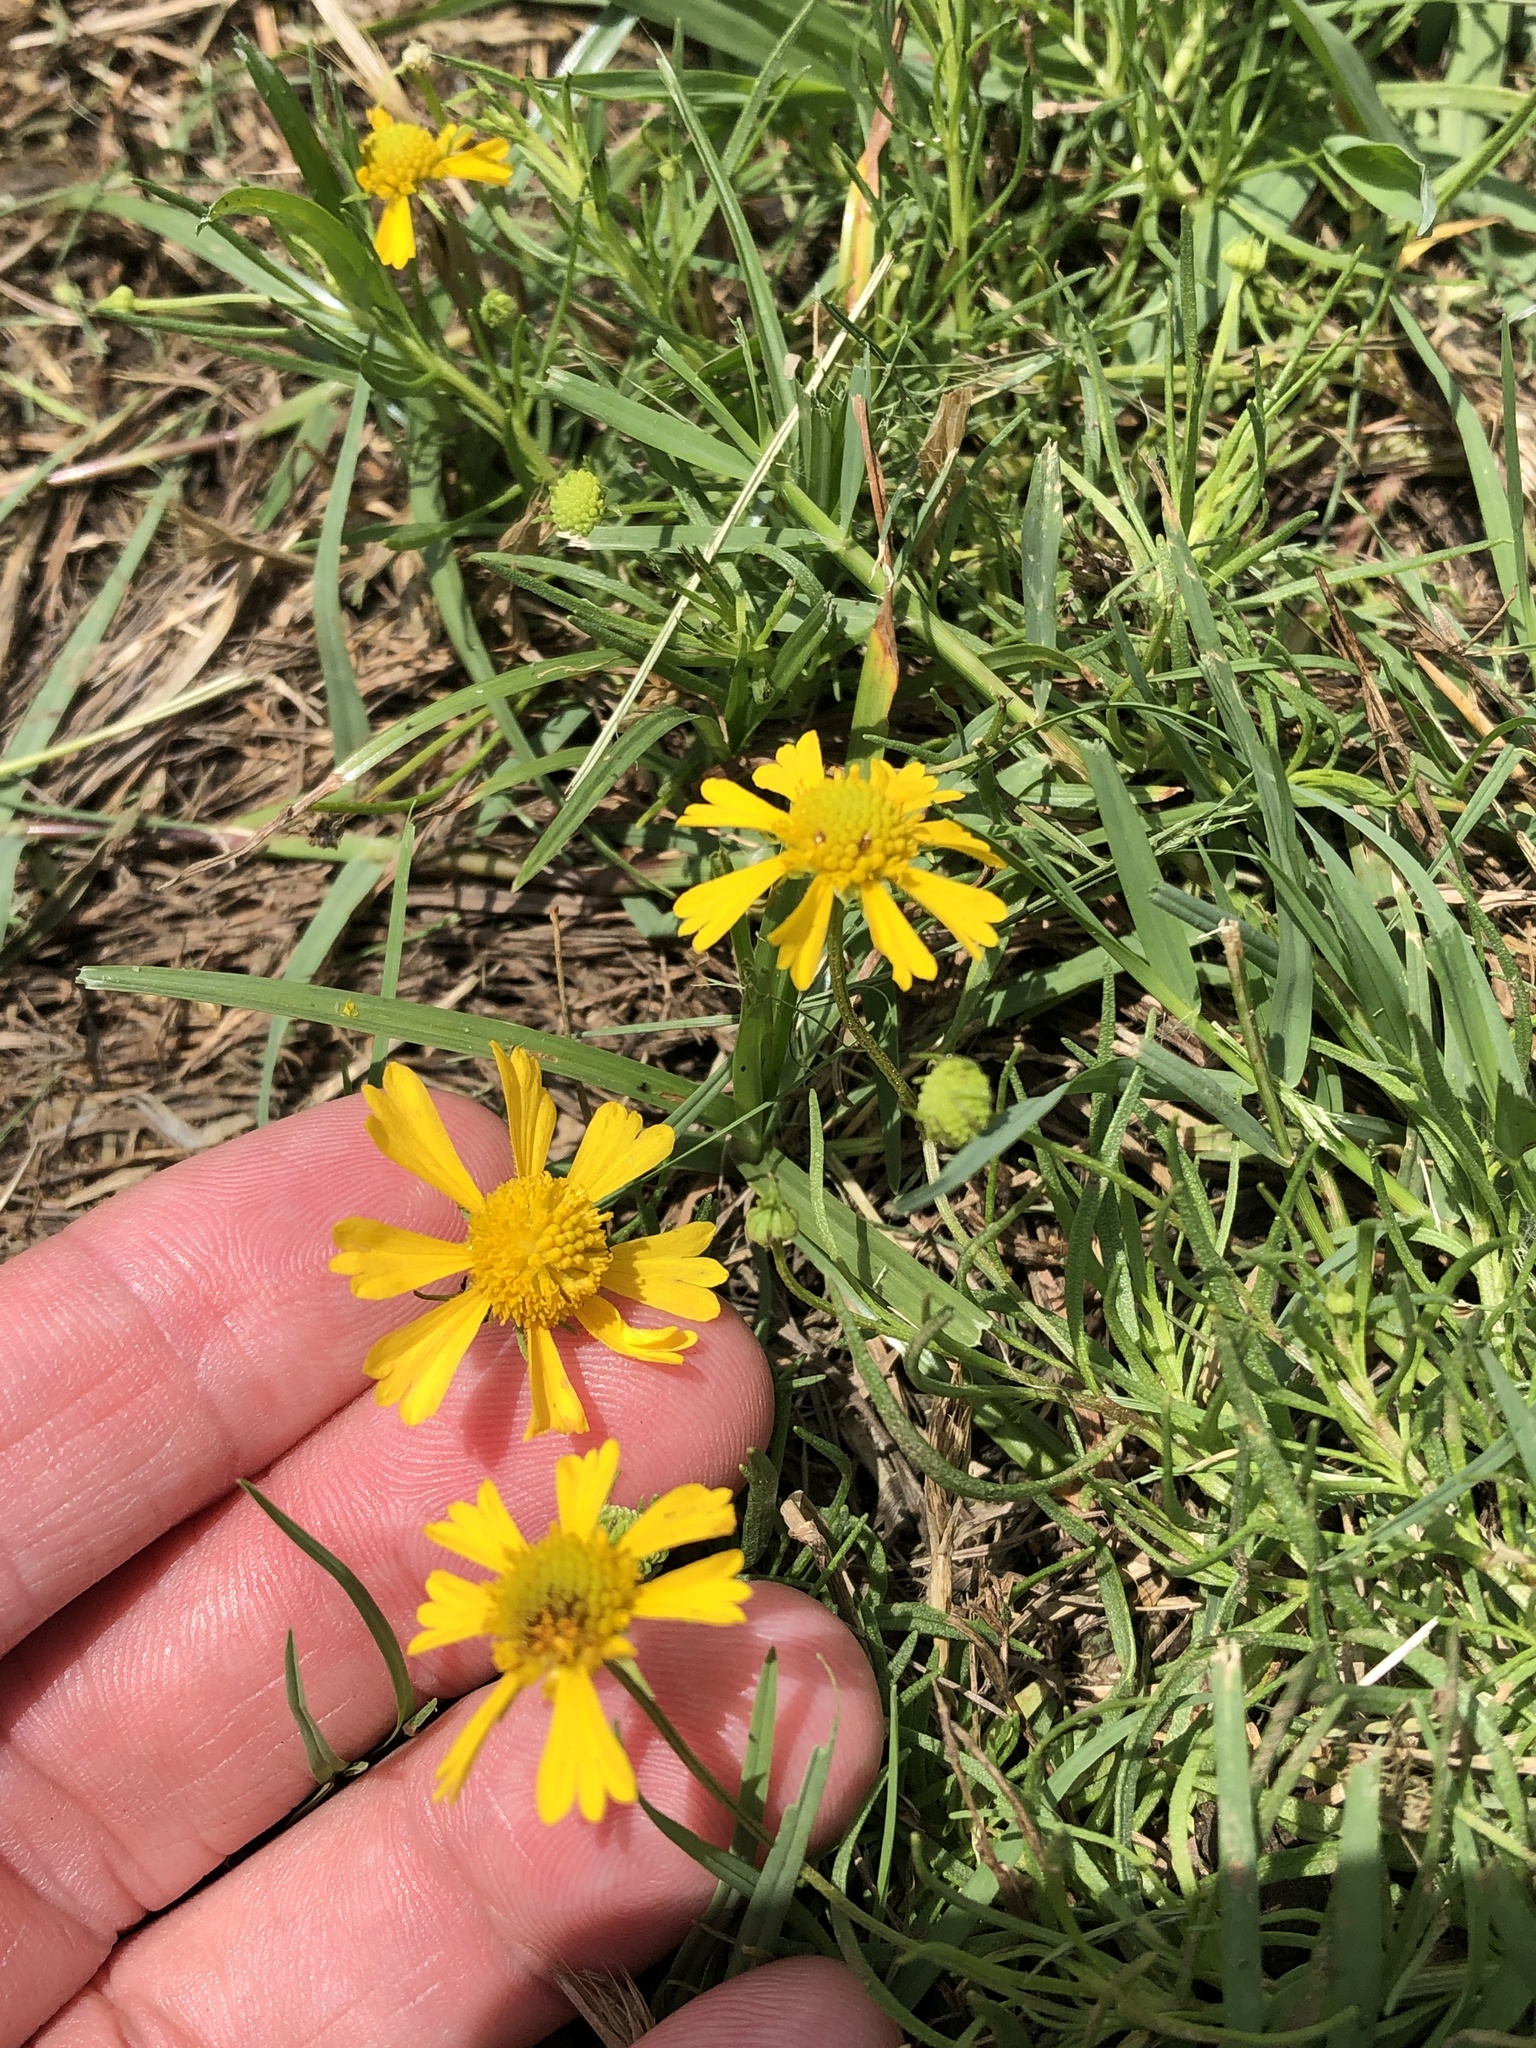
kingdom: Plantae
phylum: Tracheophyta
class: Magnoliopsida
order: Asterales
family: Asteraceae
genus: Helenium
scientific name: Helenium amarum
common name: Bitter sneezeweed
